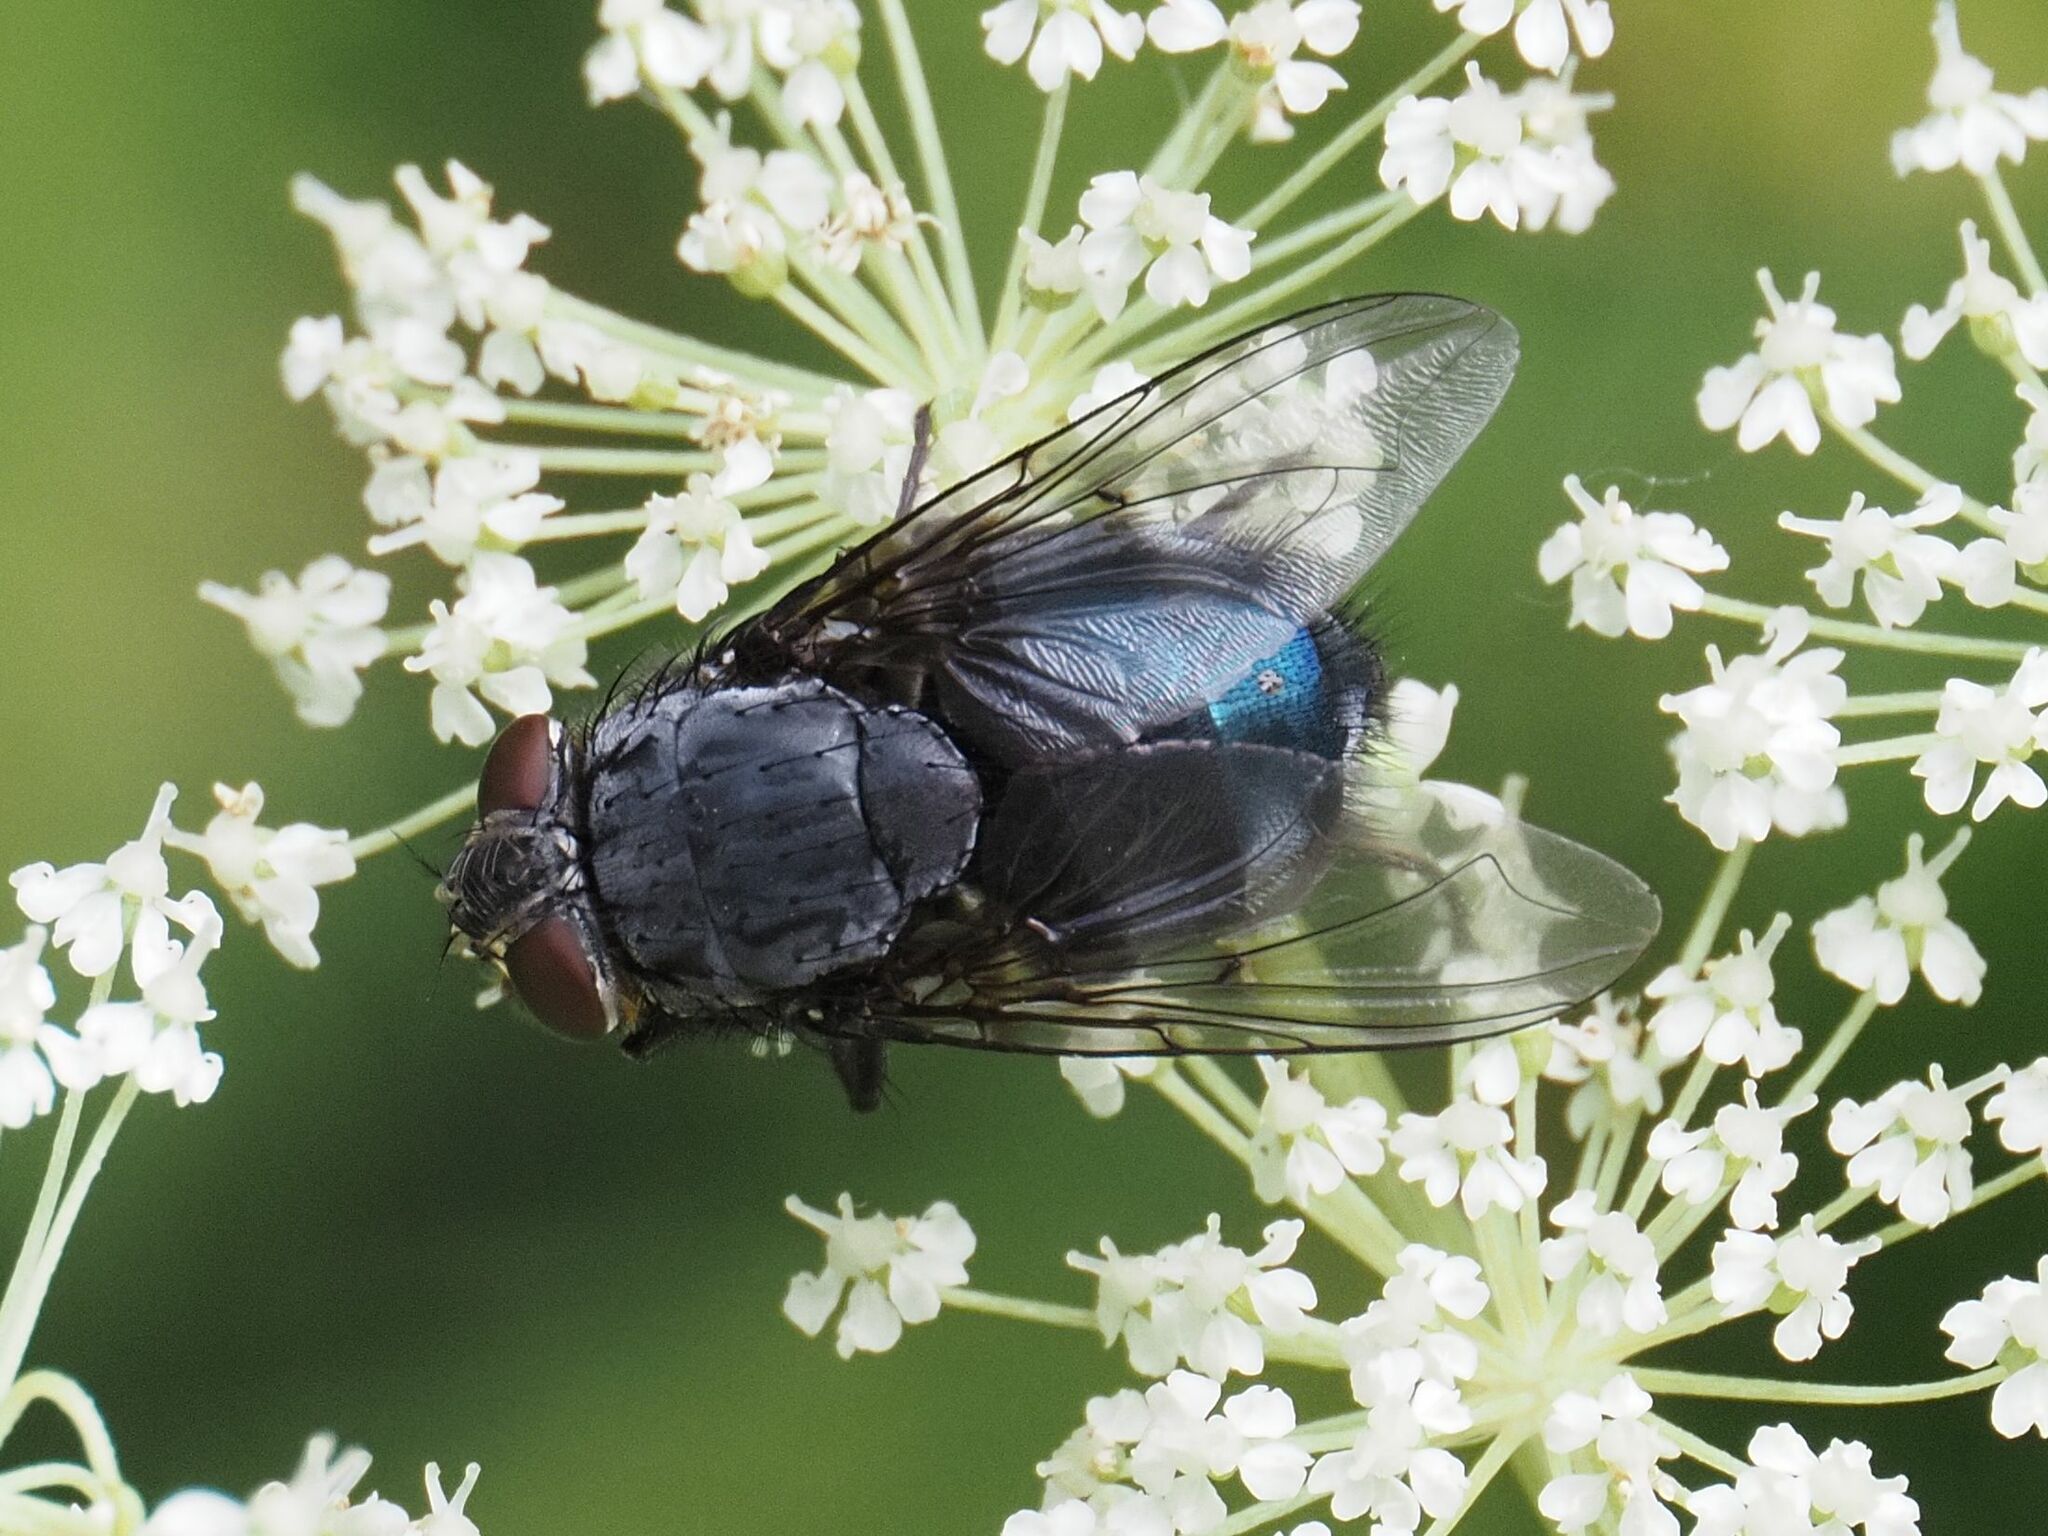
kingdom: Animalia
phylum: Arthropoda
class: Insecta
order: Diptera
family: Calliphoridae
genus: Calliphora
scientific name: Calliphora vomitoria
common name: Blue bottle fly
